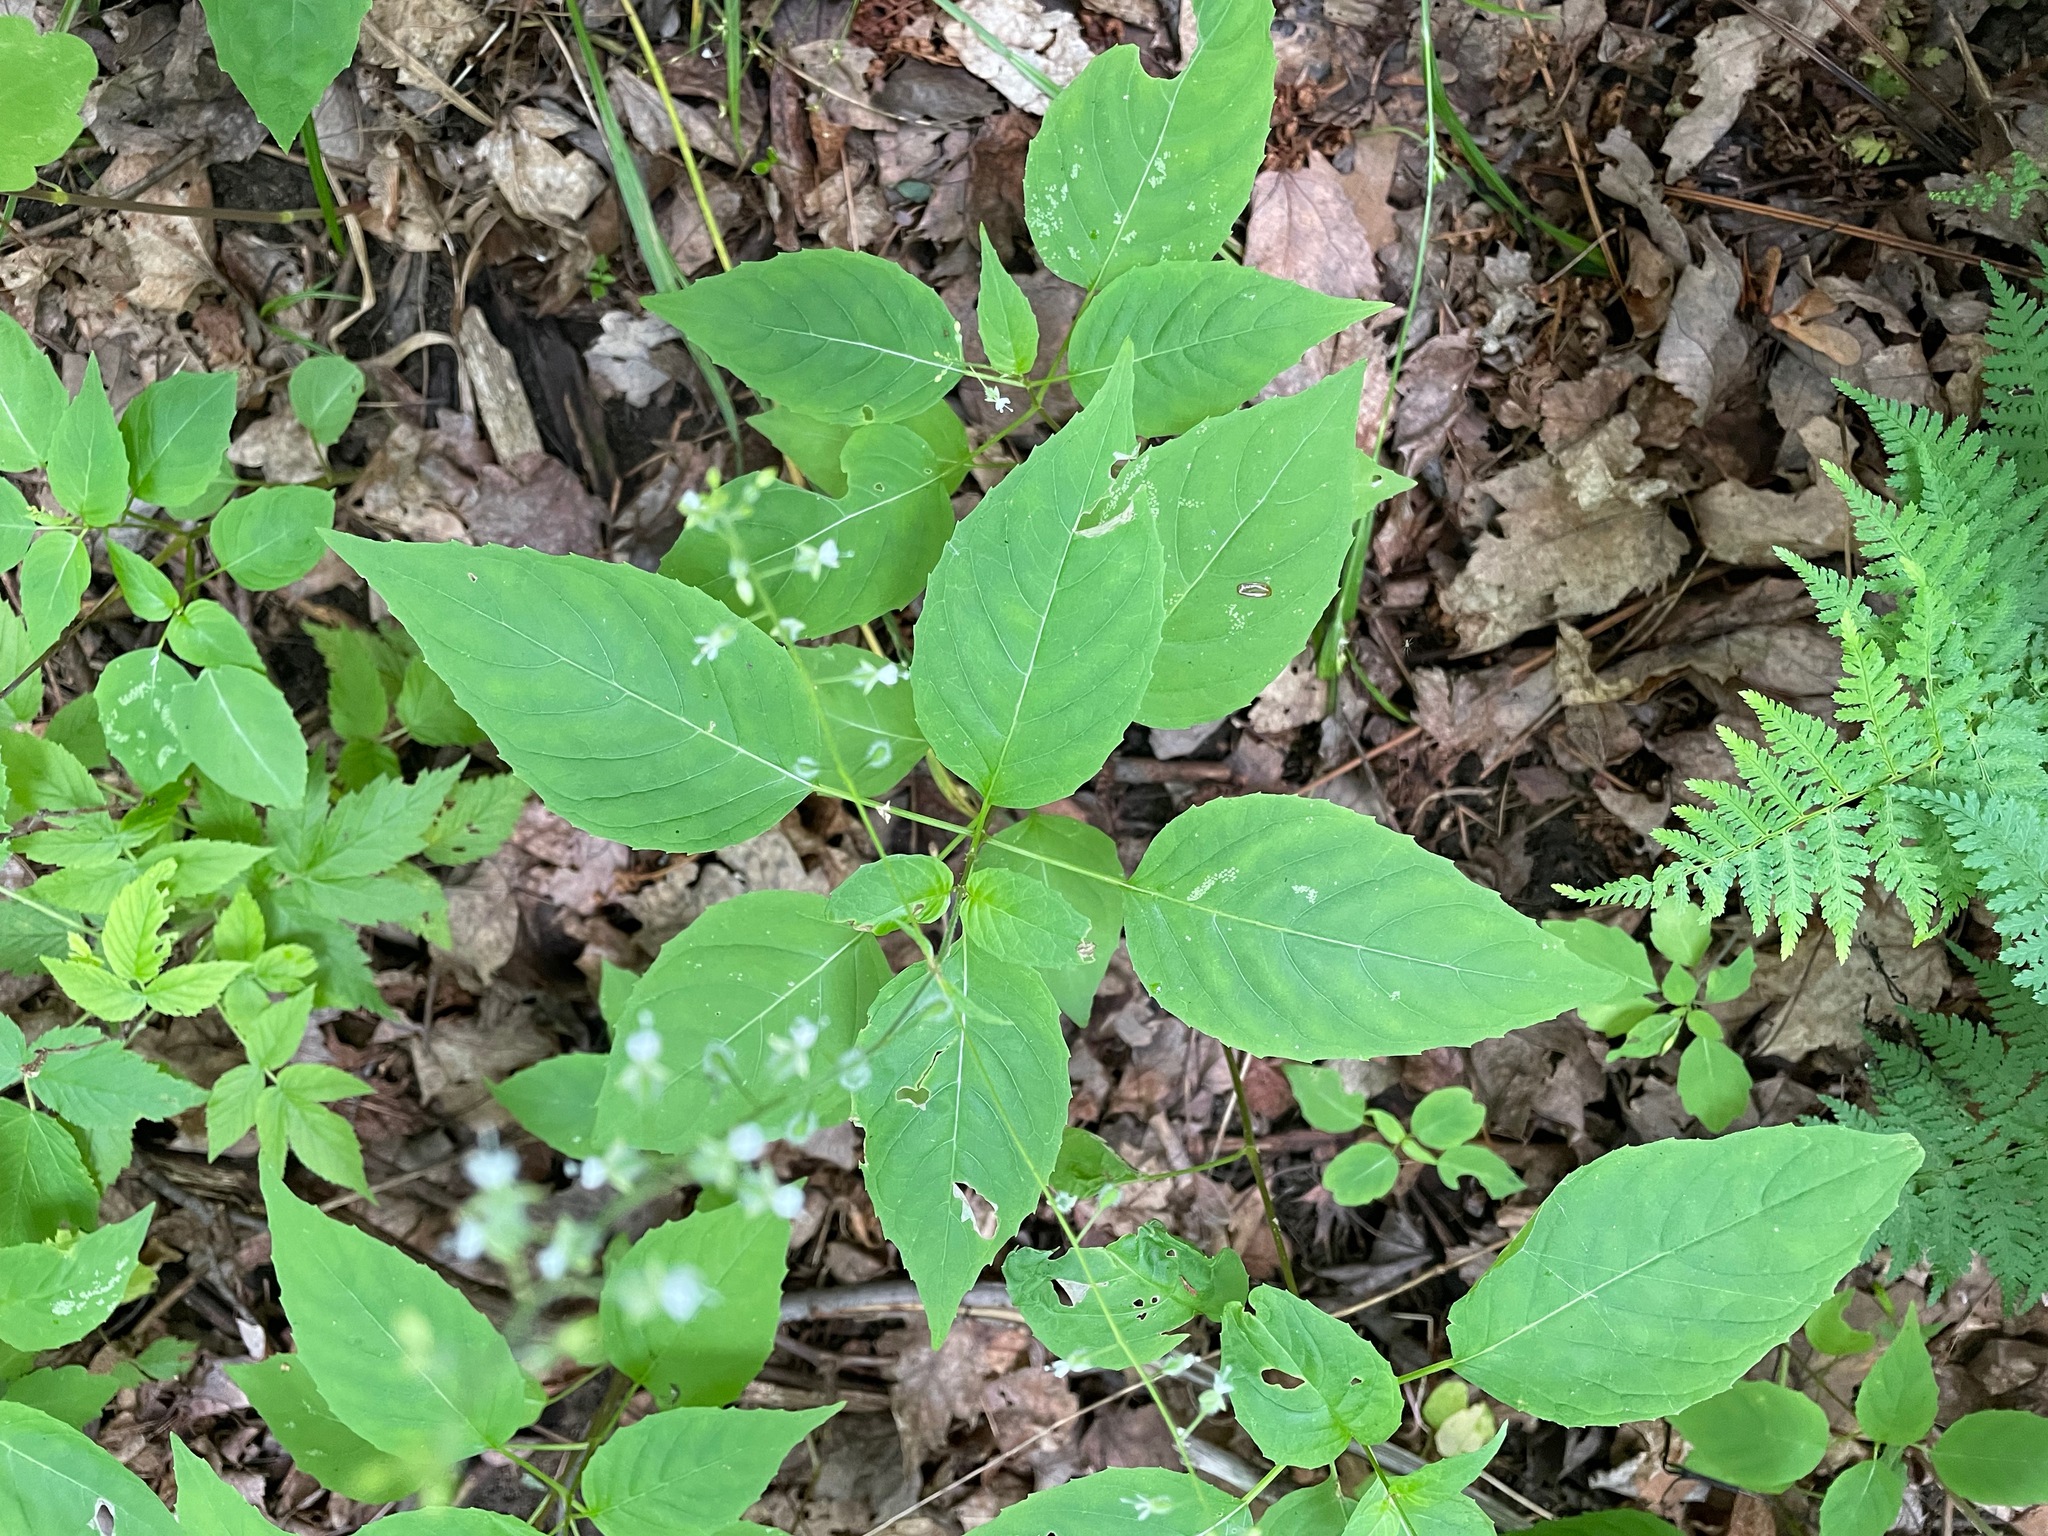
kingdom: Plantae
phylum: Tracheophyta
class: Magnoliopsida
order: Myrtales
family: Onagraceae
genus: Circaea
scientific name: Circaea canadensis
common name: Broad-leaved enchanter's nightshade
